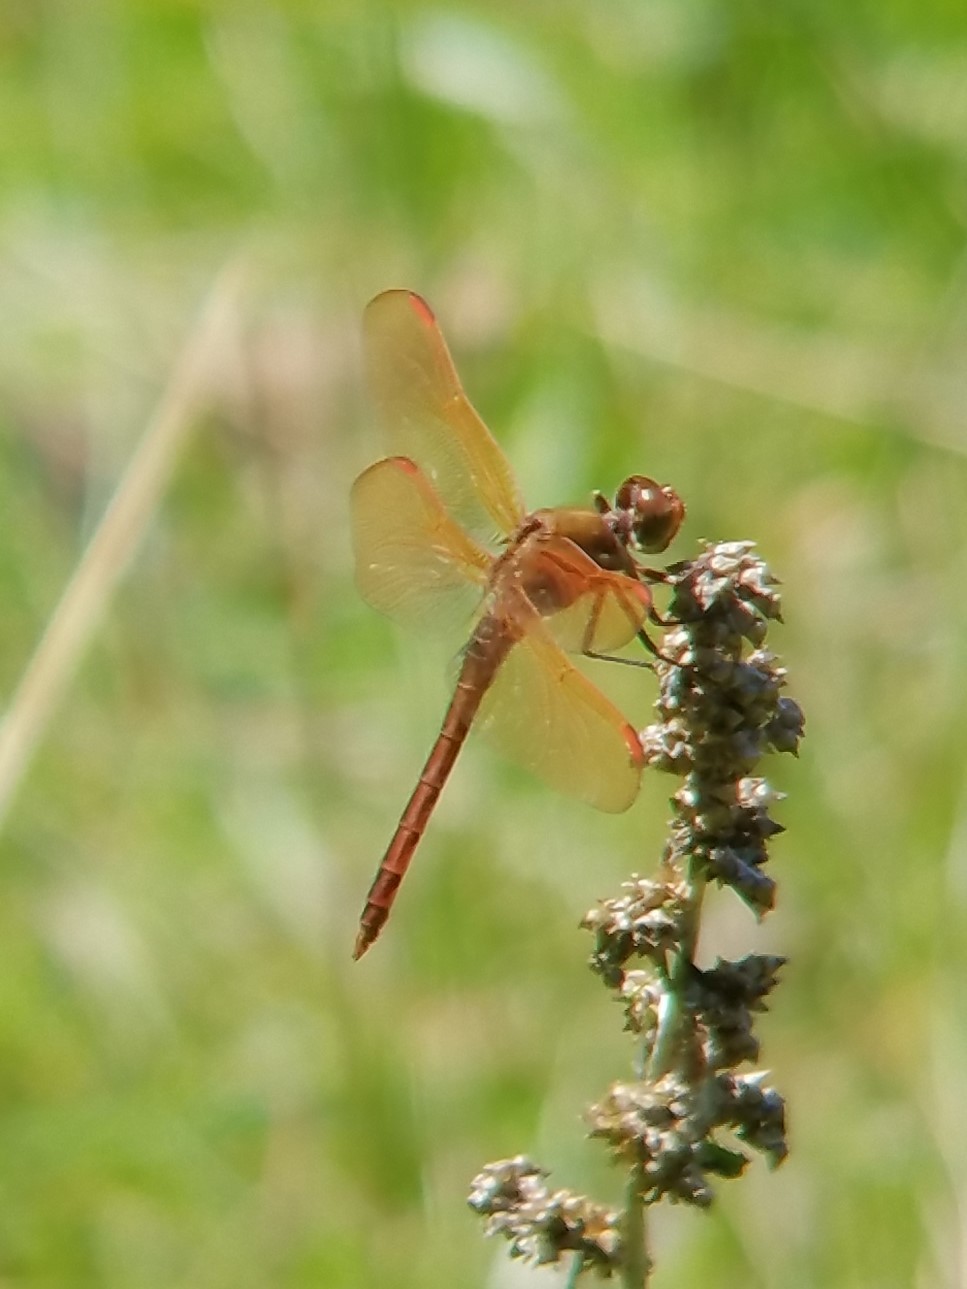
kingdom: Animalia
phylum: Arthropoda
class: Insecta
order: Odonata
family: Libellulidae
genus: Libellula
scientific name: Libellula auripennis
